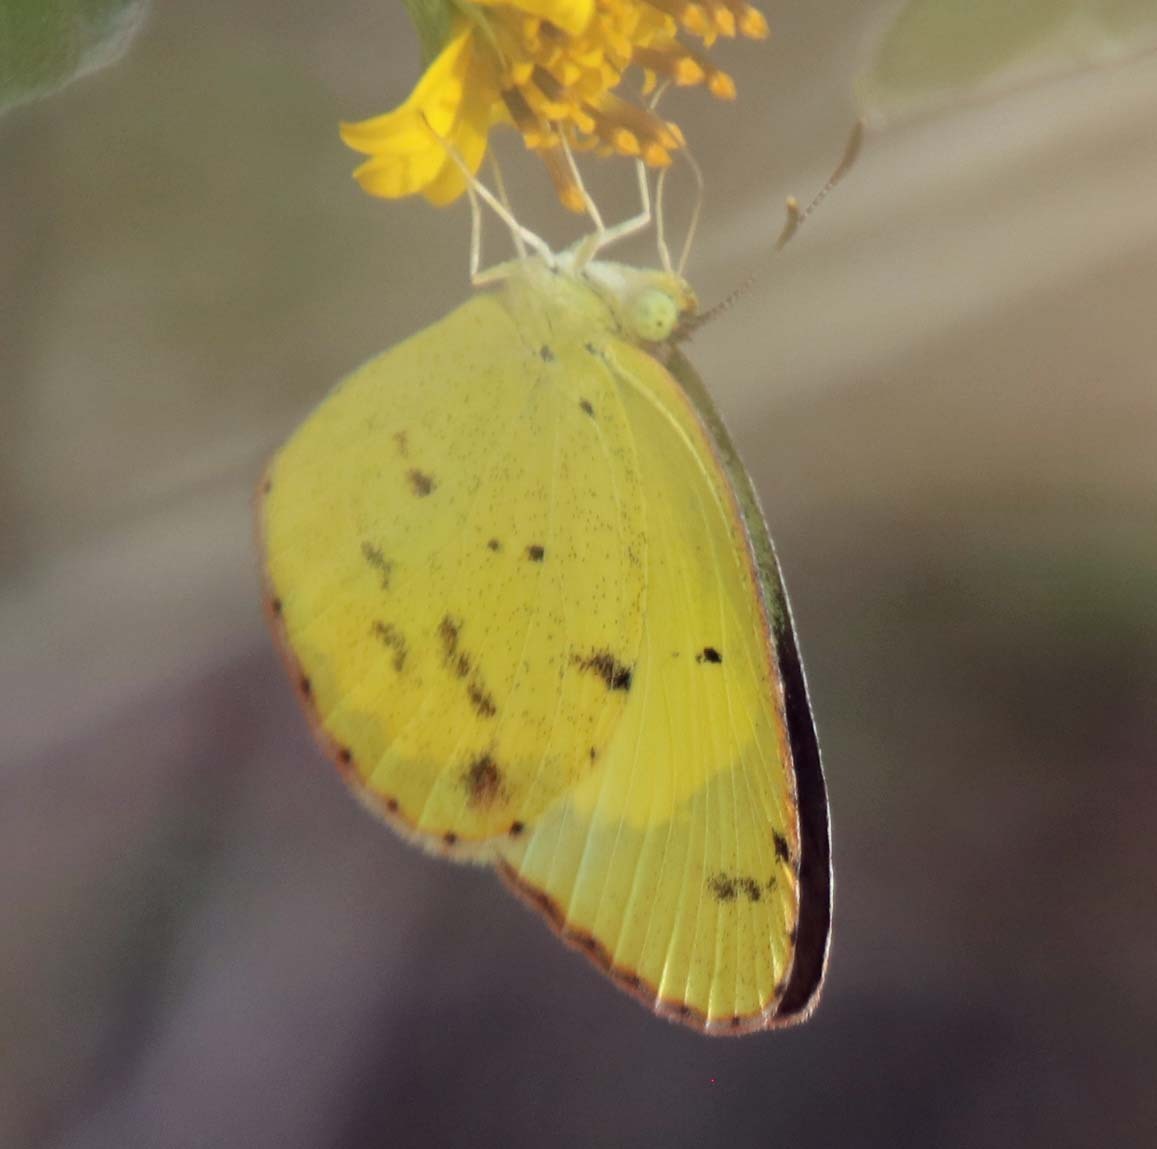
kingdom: Animalia
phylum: Arthropoda
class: Insecta
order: Lepidoptera
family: Pieridae
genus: Pyrisitia
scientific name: Pyrisitia lisa
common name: Little yellow
